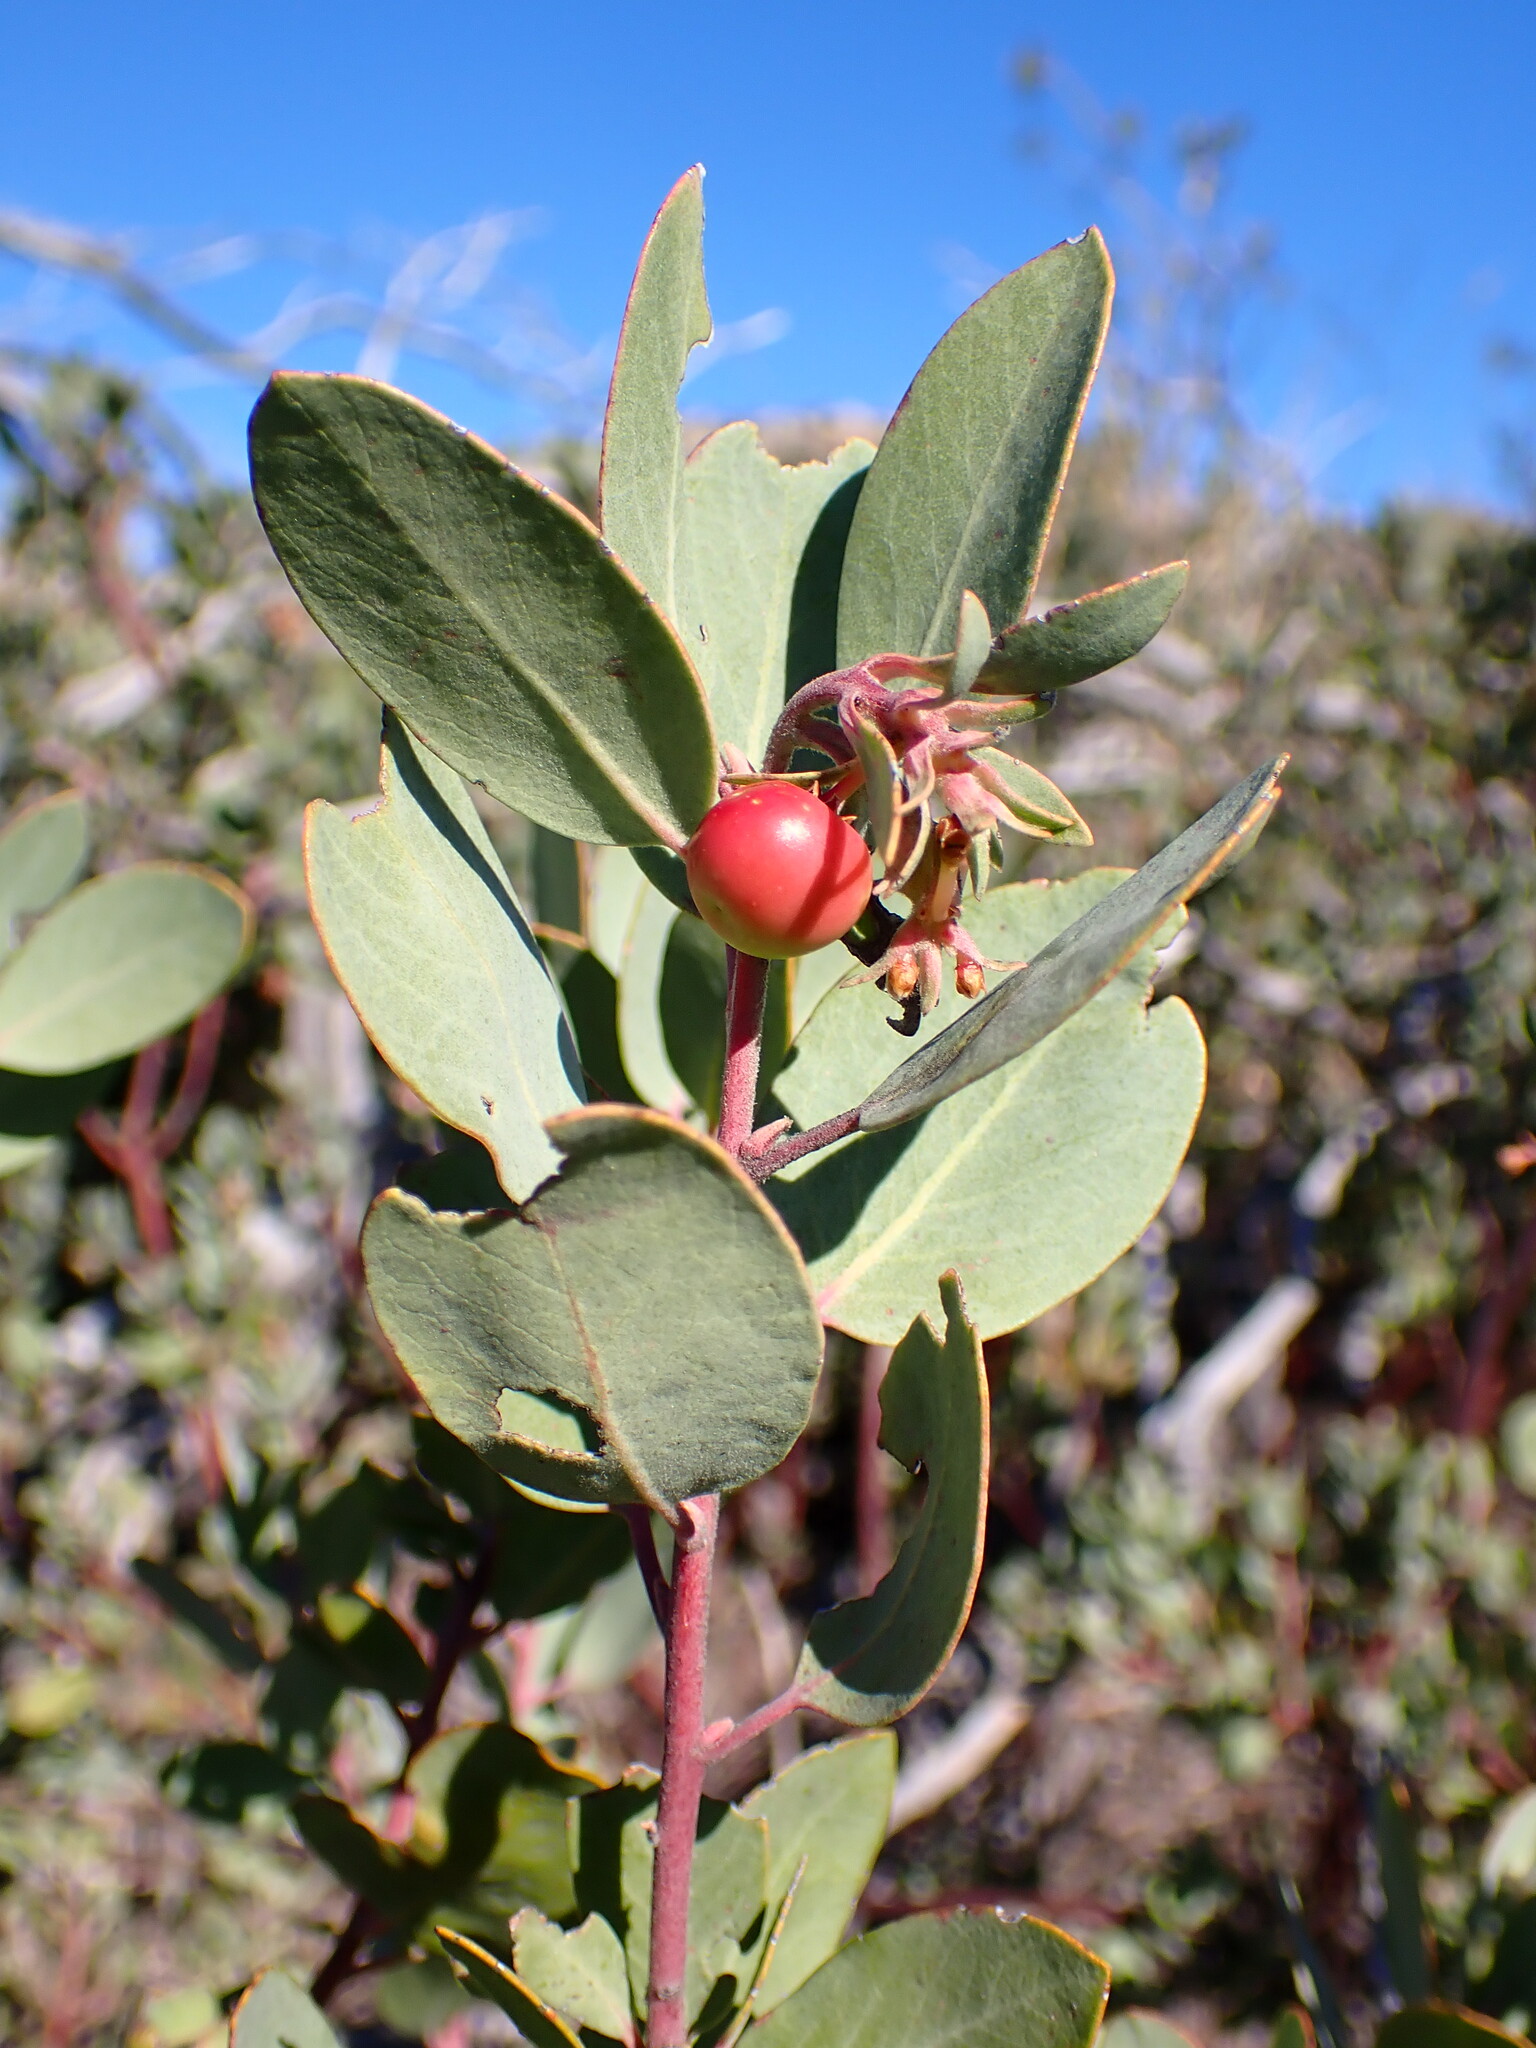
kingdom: Plantae
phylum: Tracheophyta
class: Magnoliopsida
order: Ericales
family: Ericaceae
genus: Arctostaphylos
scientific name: Arctostaphylos silvicola
